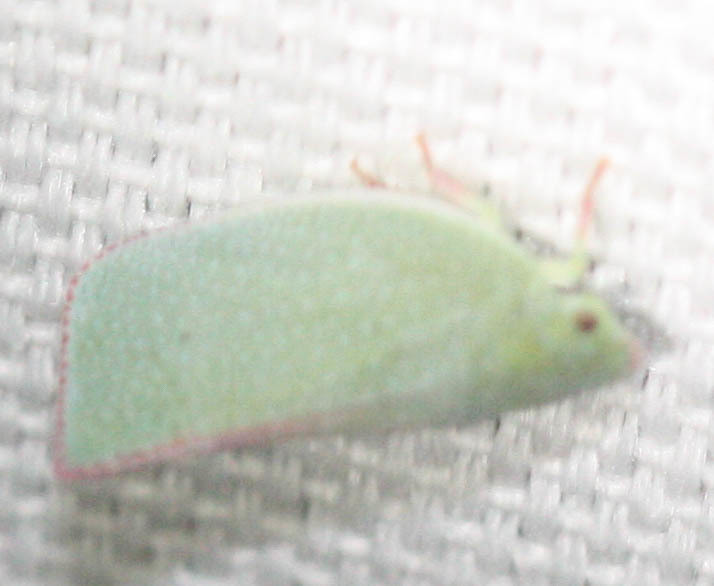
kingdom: Animalia
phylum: Arthropoda
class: Insecta
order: Hemiptera
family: Flatidae
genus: Siphanta
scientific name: Siphanta acuta
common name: Torpedo bug
